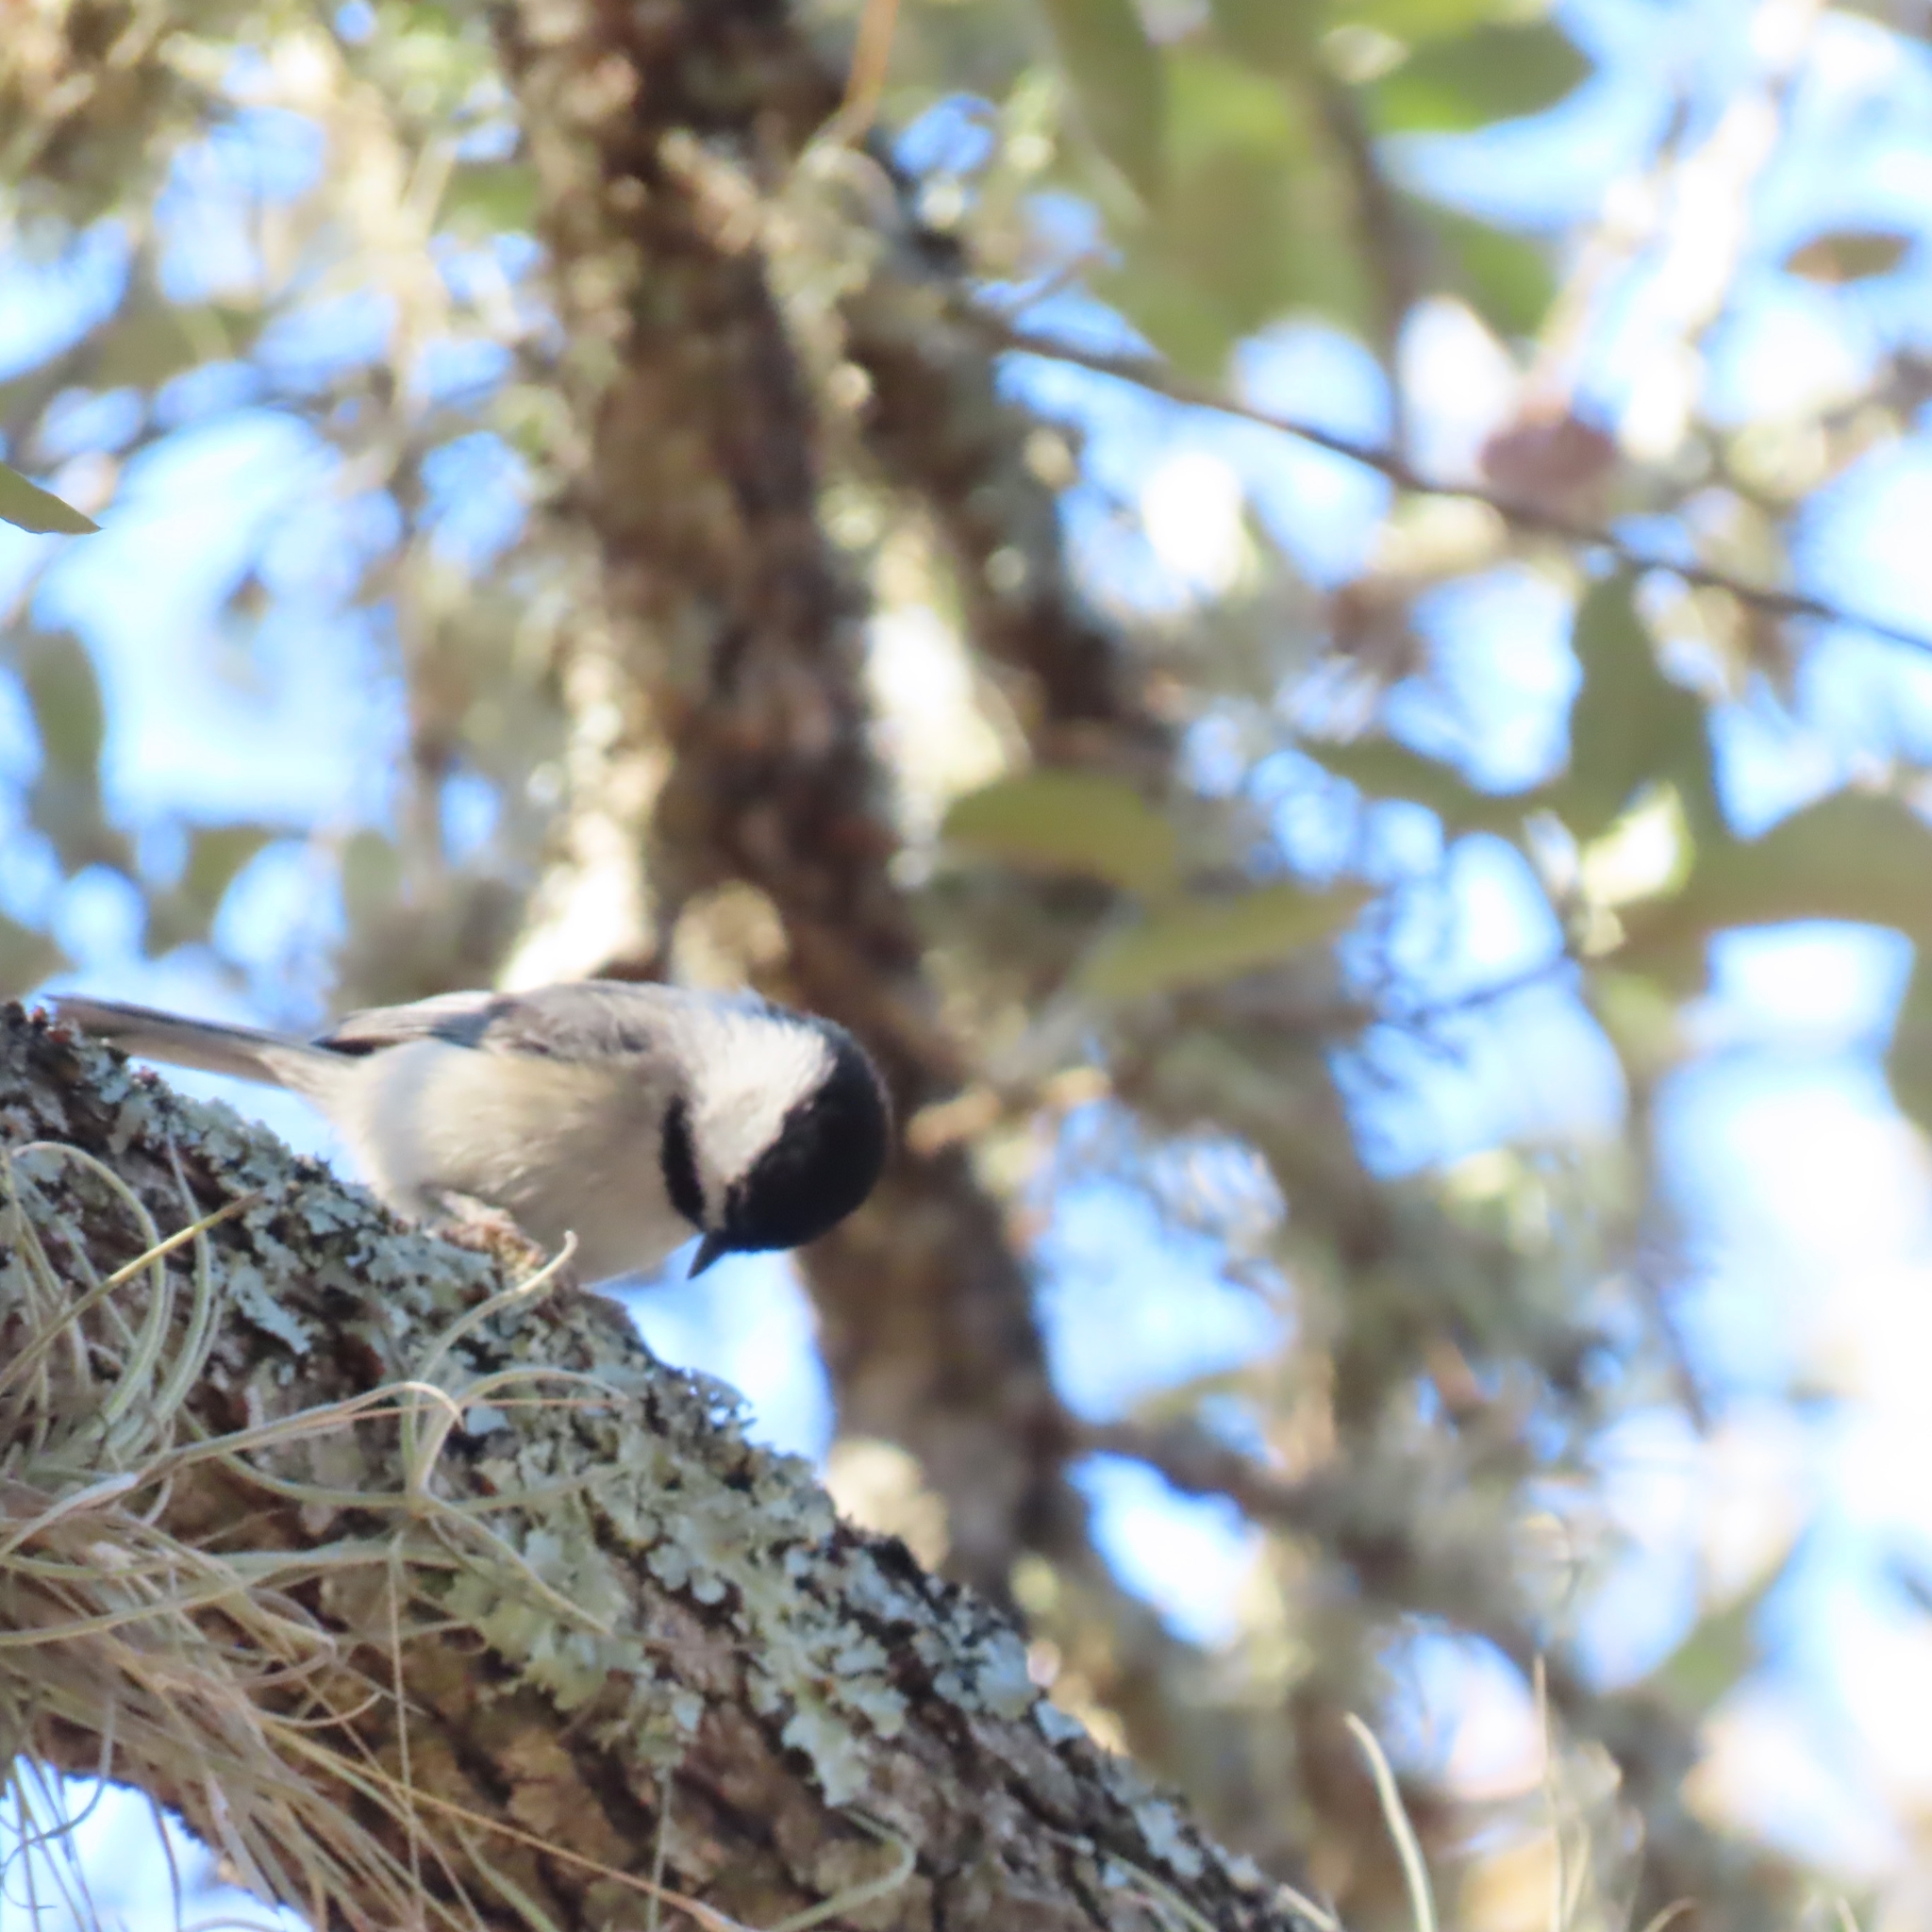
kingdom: Animalia
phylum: Chordata
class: Aves
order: Passeriformes
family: Paridae
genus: Poecile
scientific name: Poecile carolinensis
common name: Carolina chickadee
